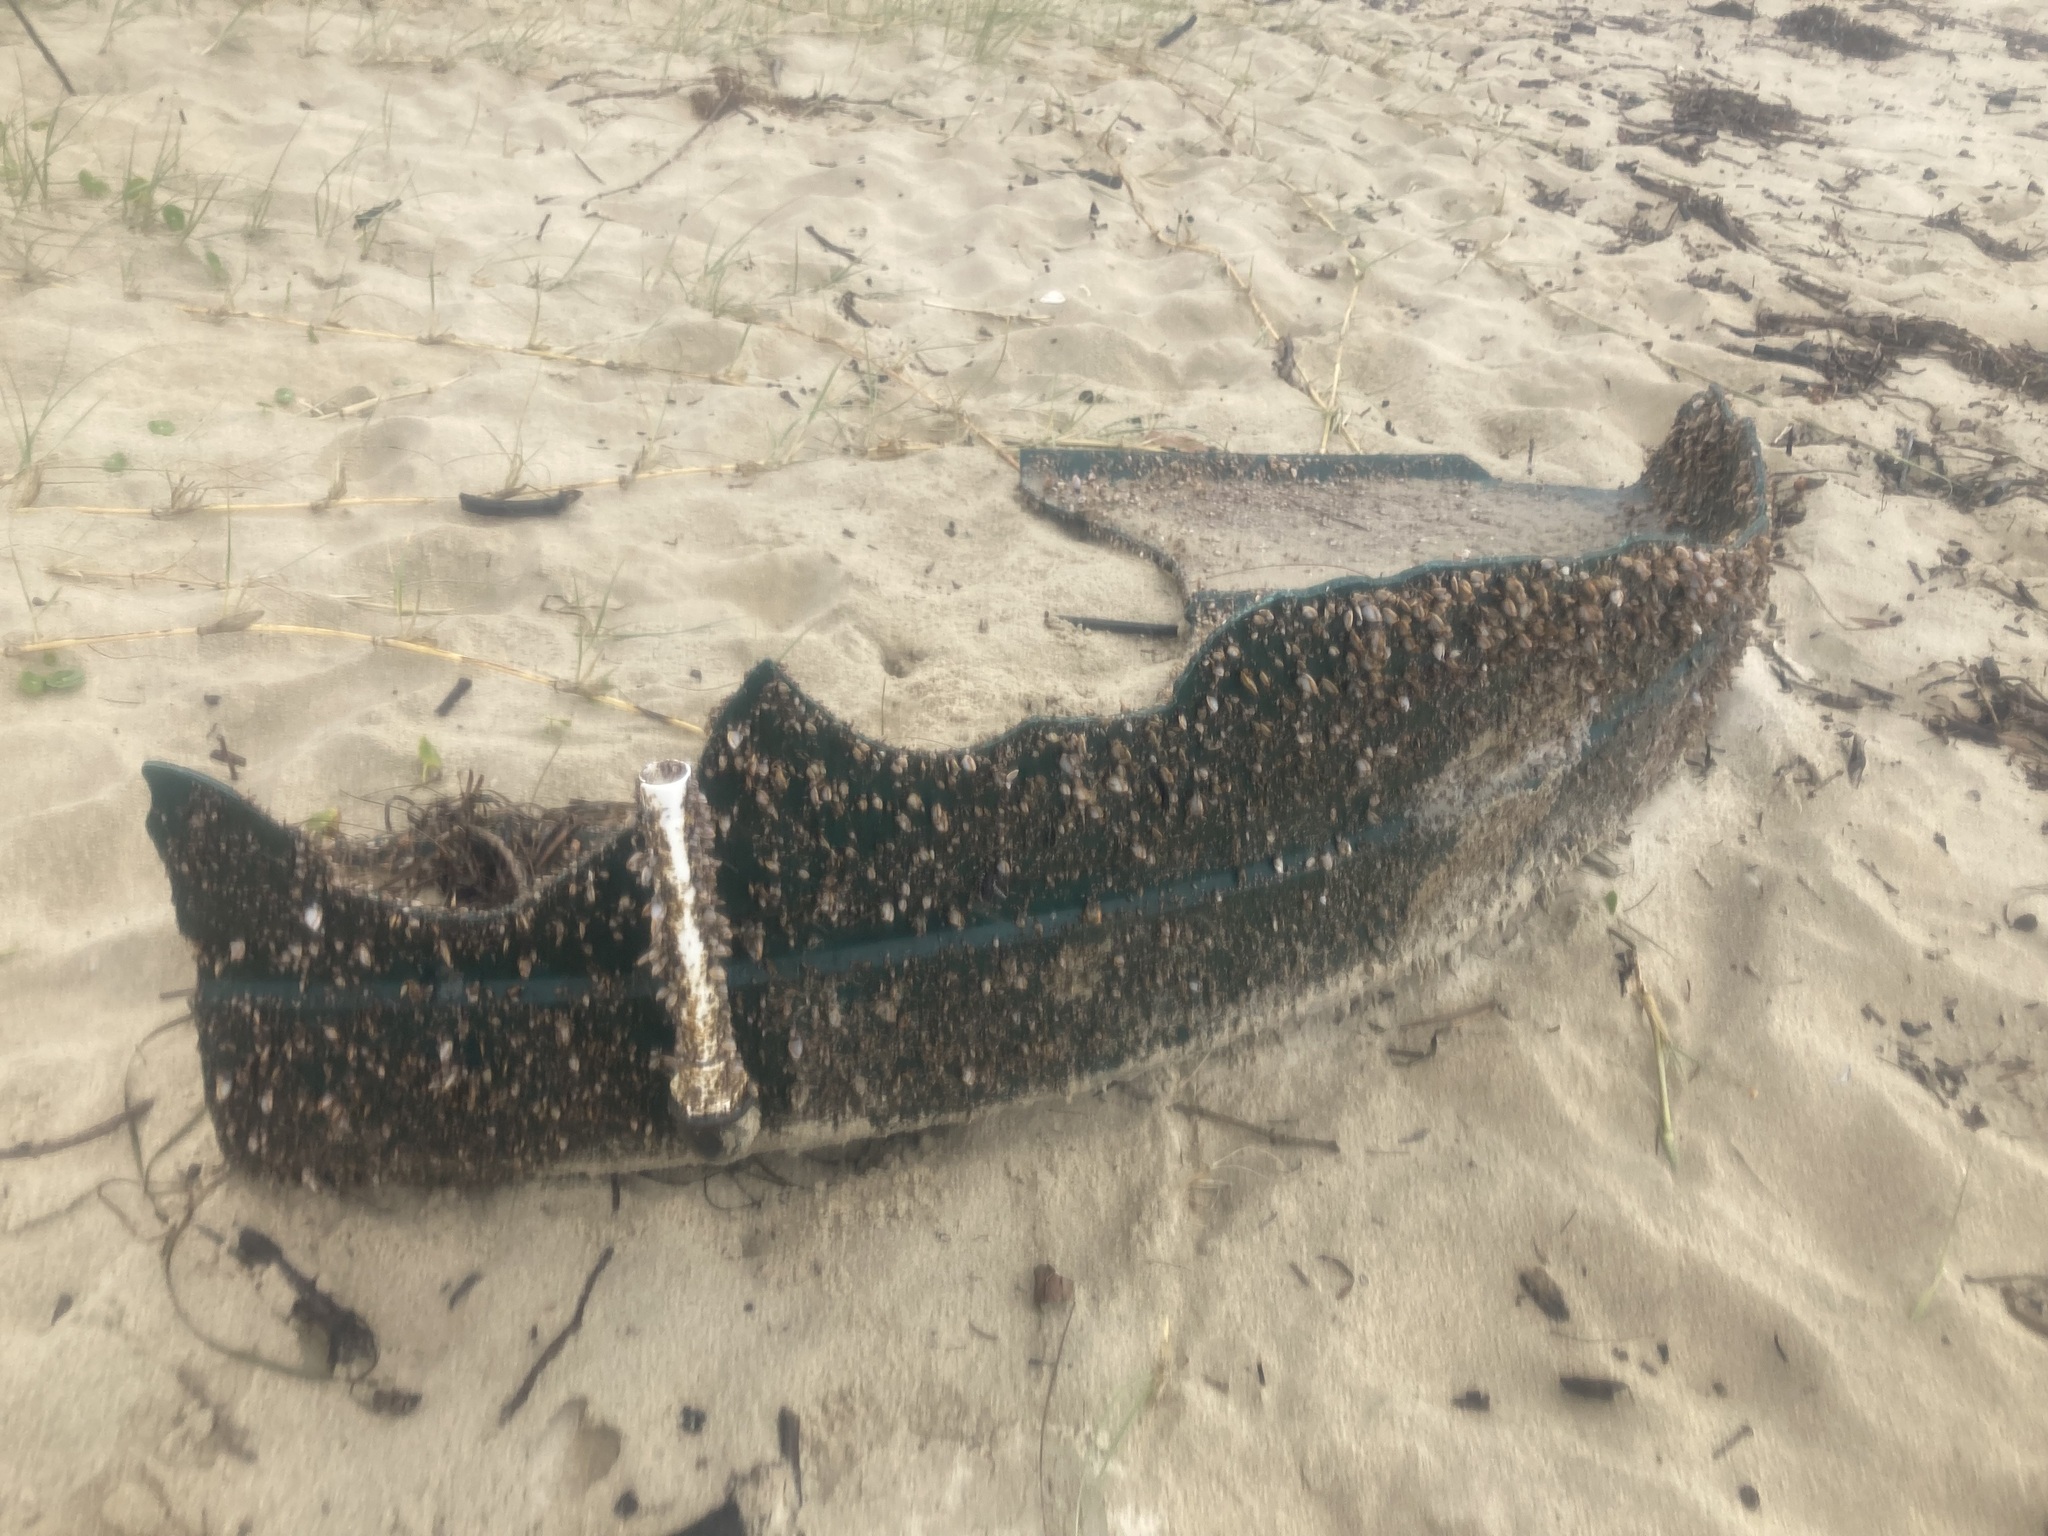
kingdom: Animalia
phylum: Arthropoda
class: Maxillopoda
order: Pedunculata
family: Lepadidae
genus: Lepas
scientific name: Lepas anserifera
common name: Goose barnacle
